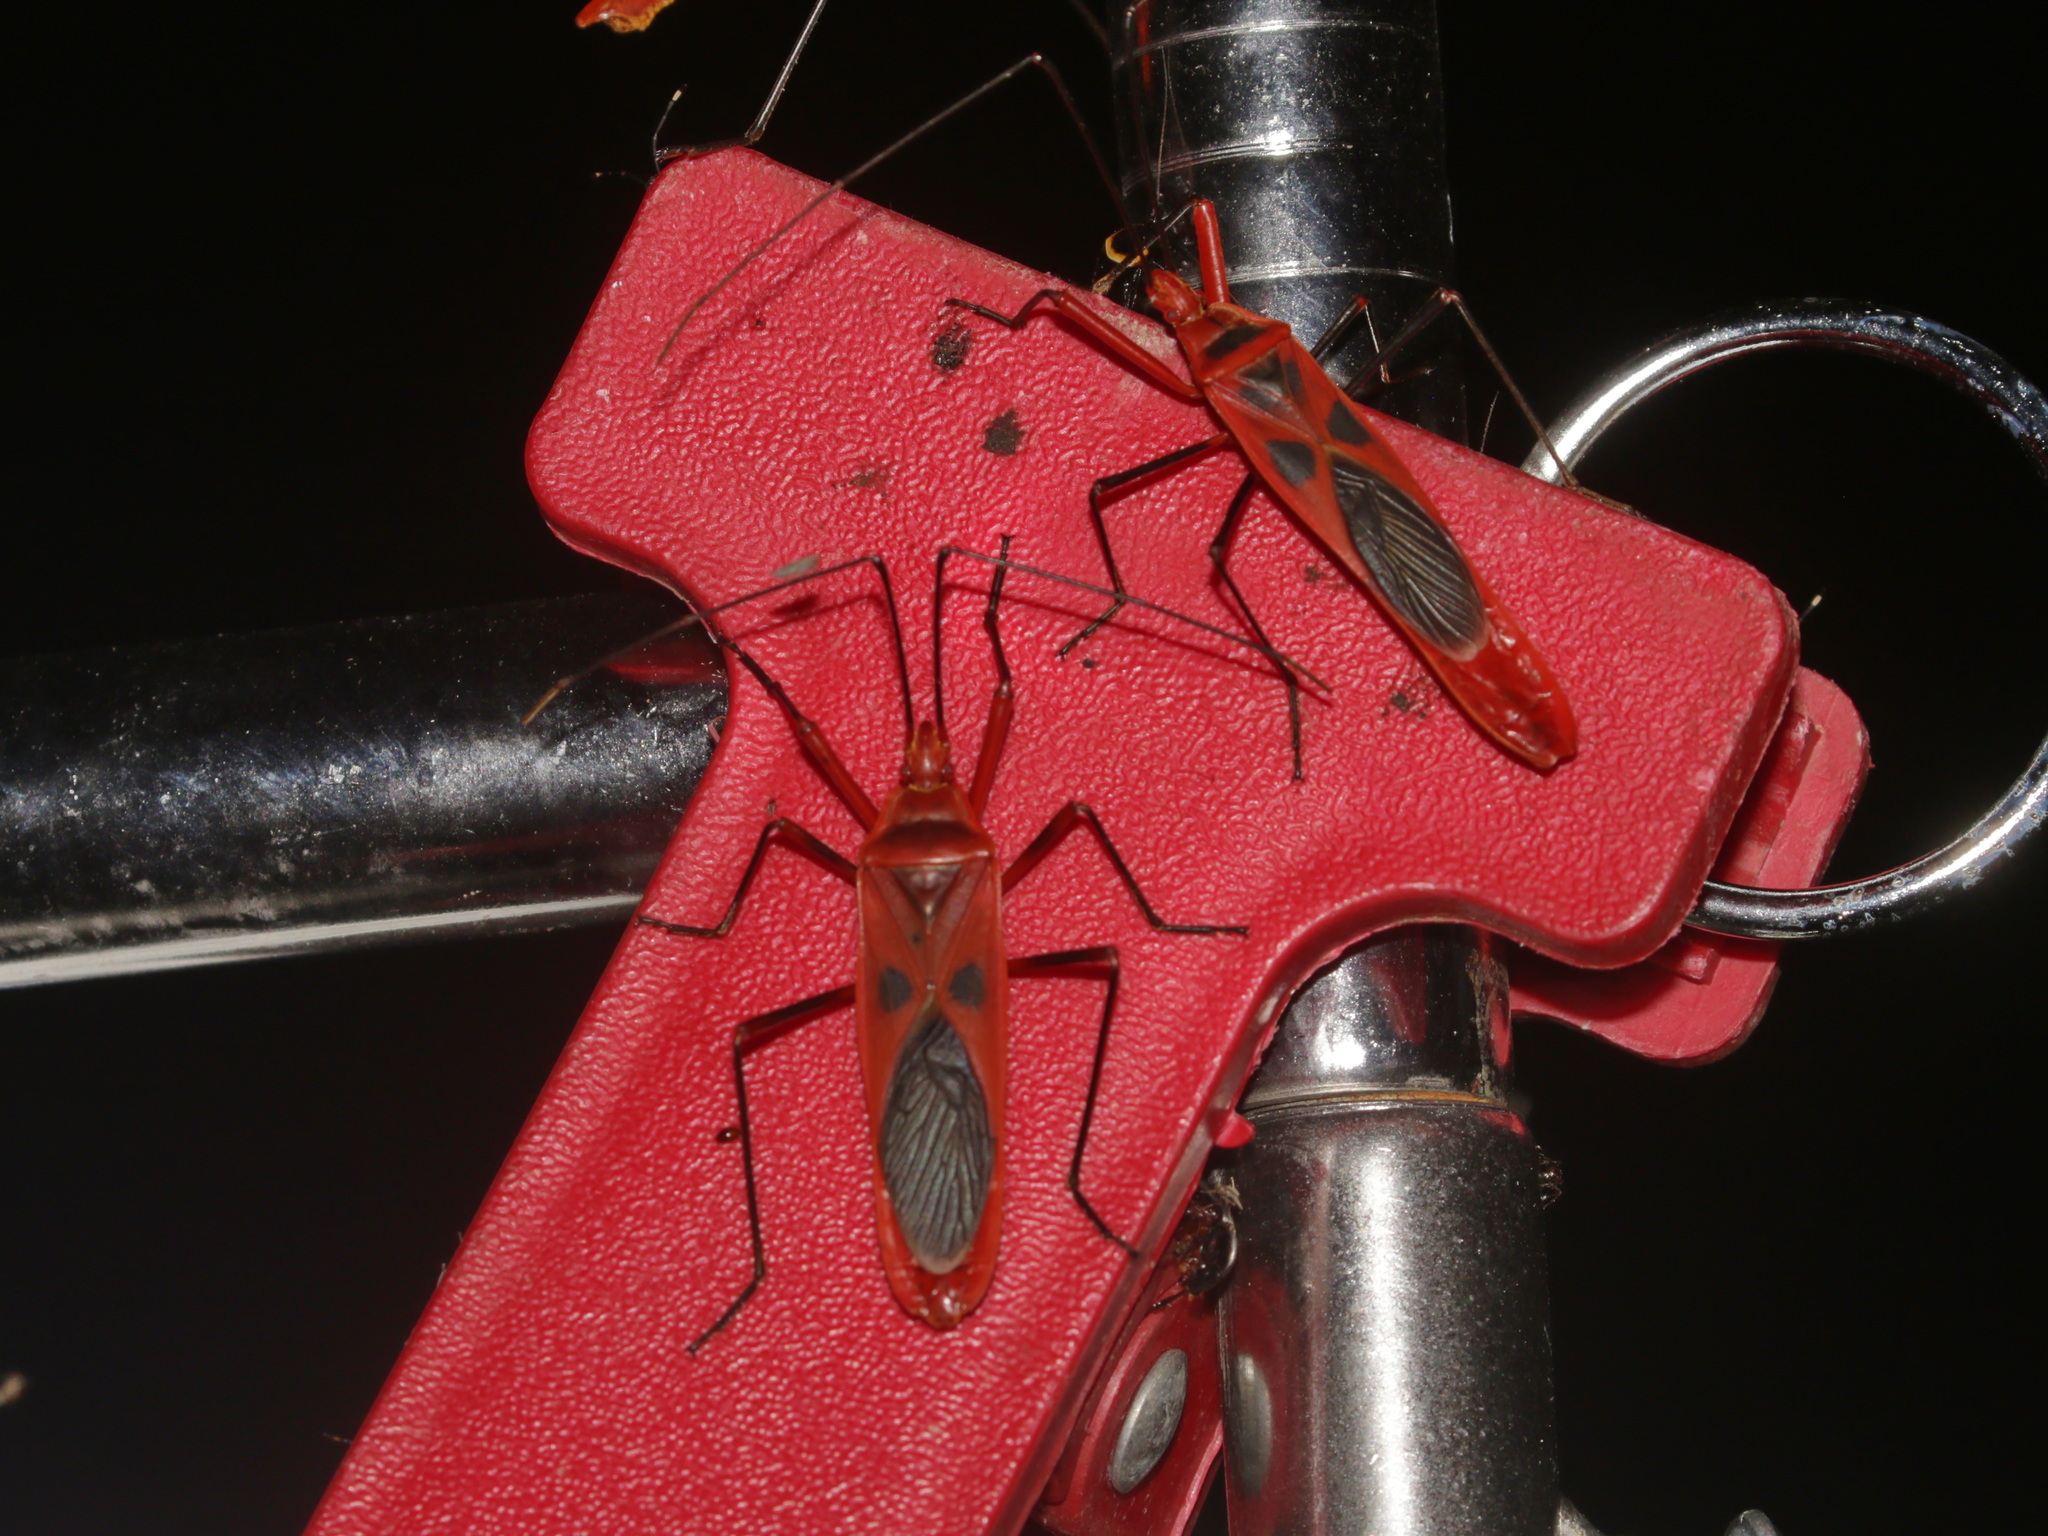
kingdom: Animalia
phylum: Arthropoda
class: Insecta
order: Hemiptera
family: Largidae
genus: Macrocheraia
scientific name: Macrocheraia grandis
